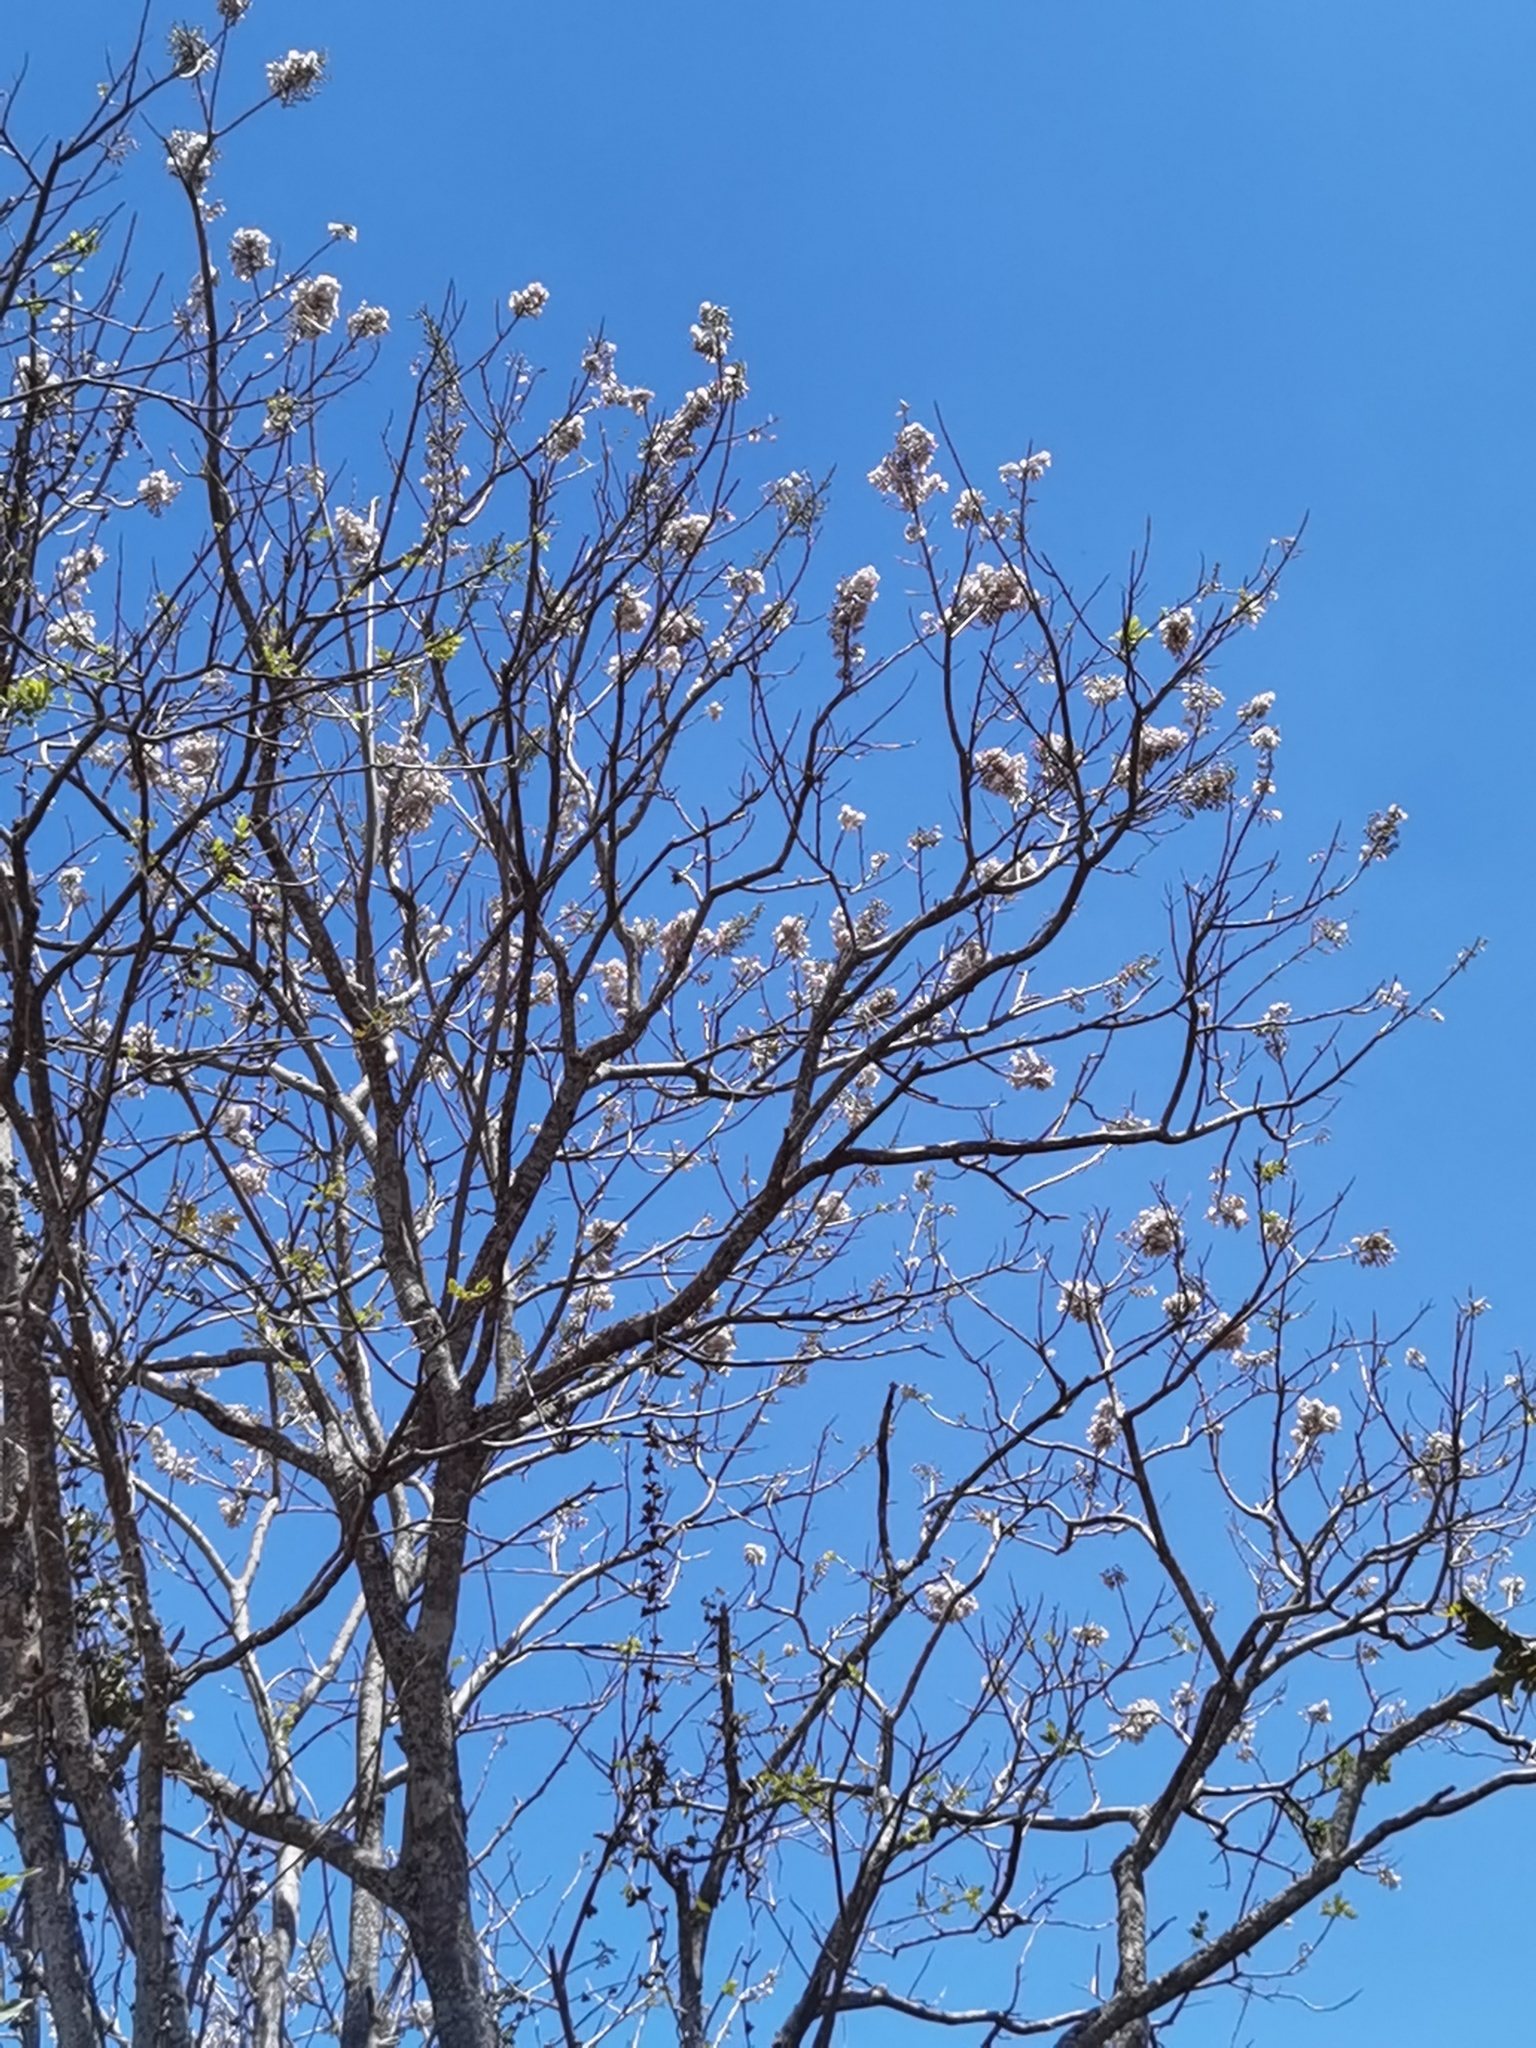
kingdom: Plantae
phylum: Tracheophyta
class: Magnoliopsida
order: Fabales
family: Fabaceae
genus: Gliricidia
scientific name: Gliricidia sepium
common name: Quickstick
